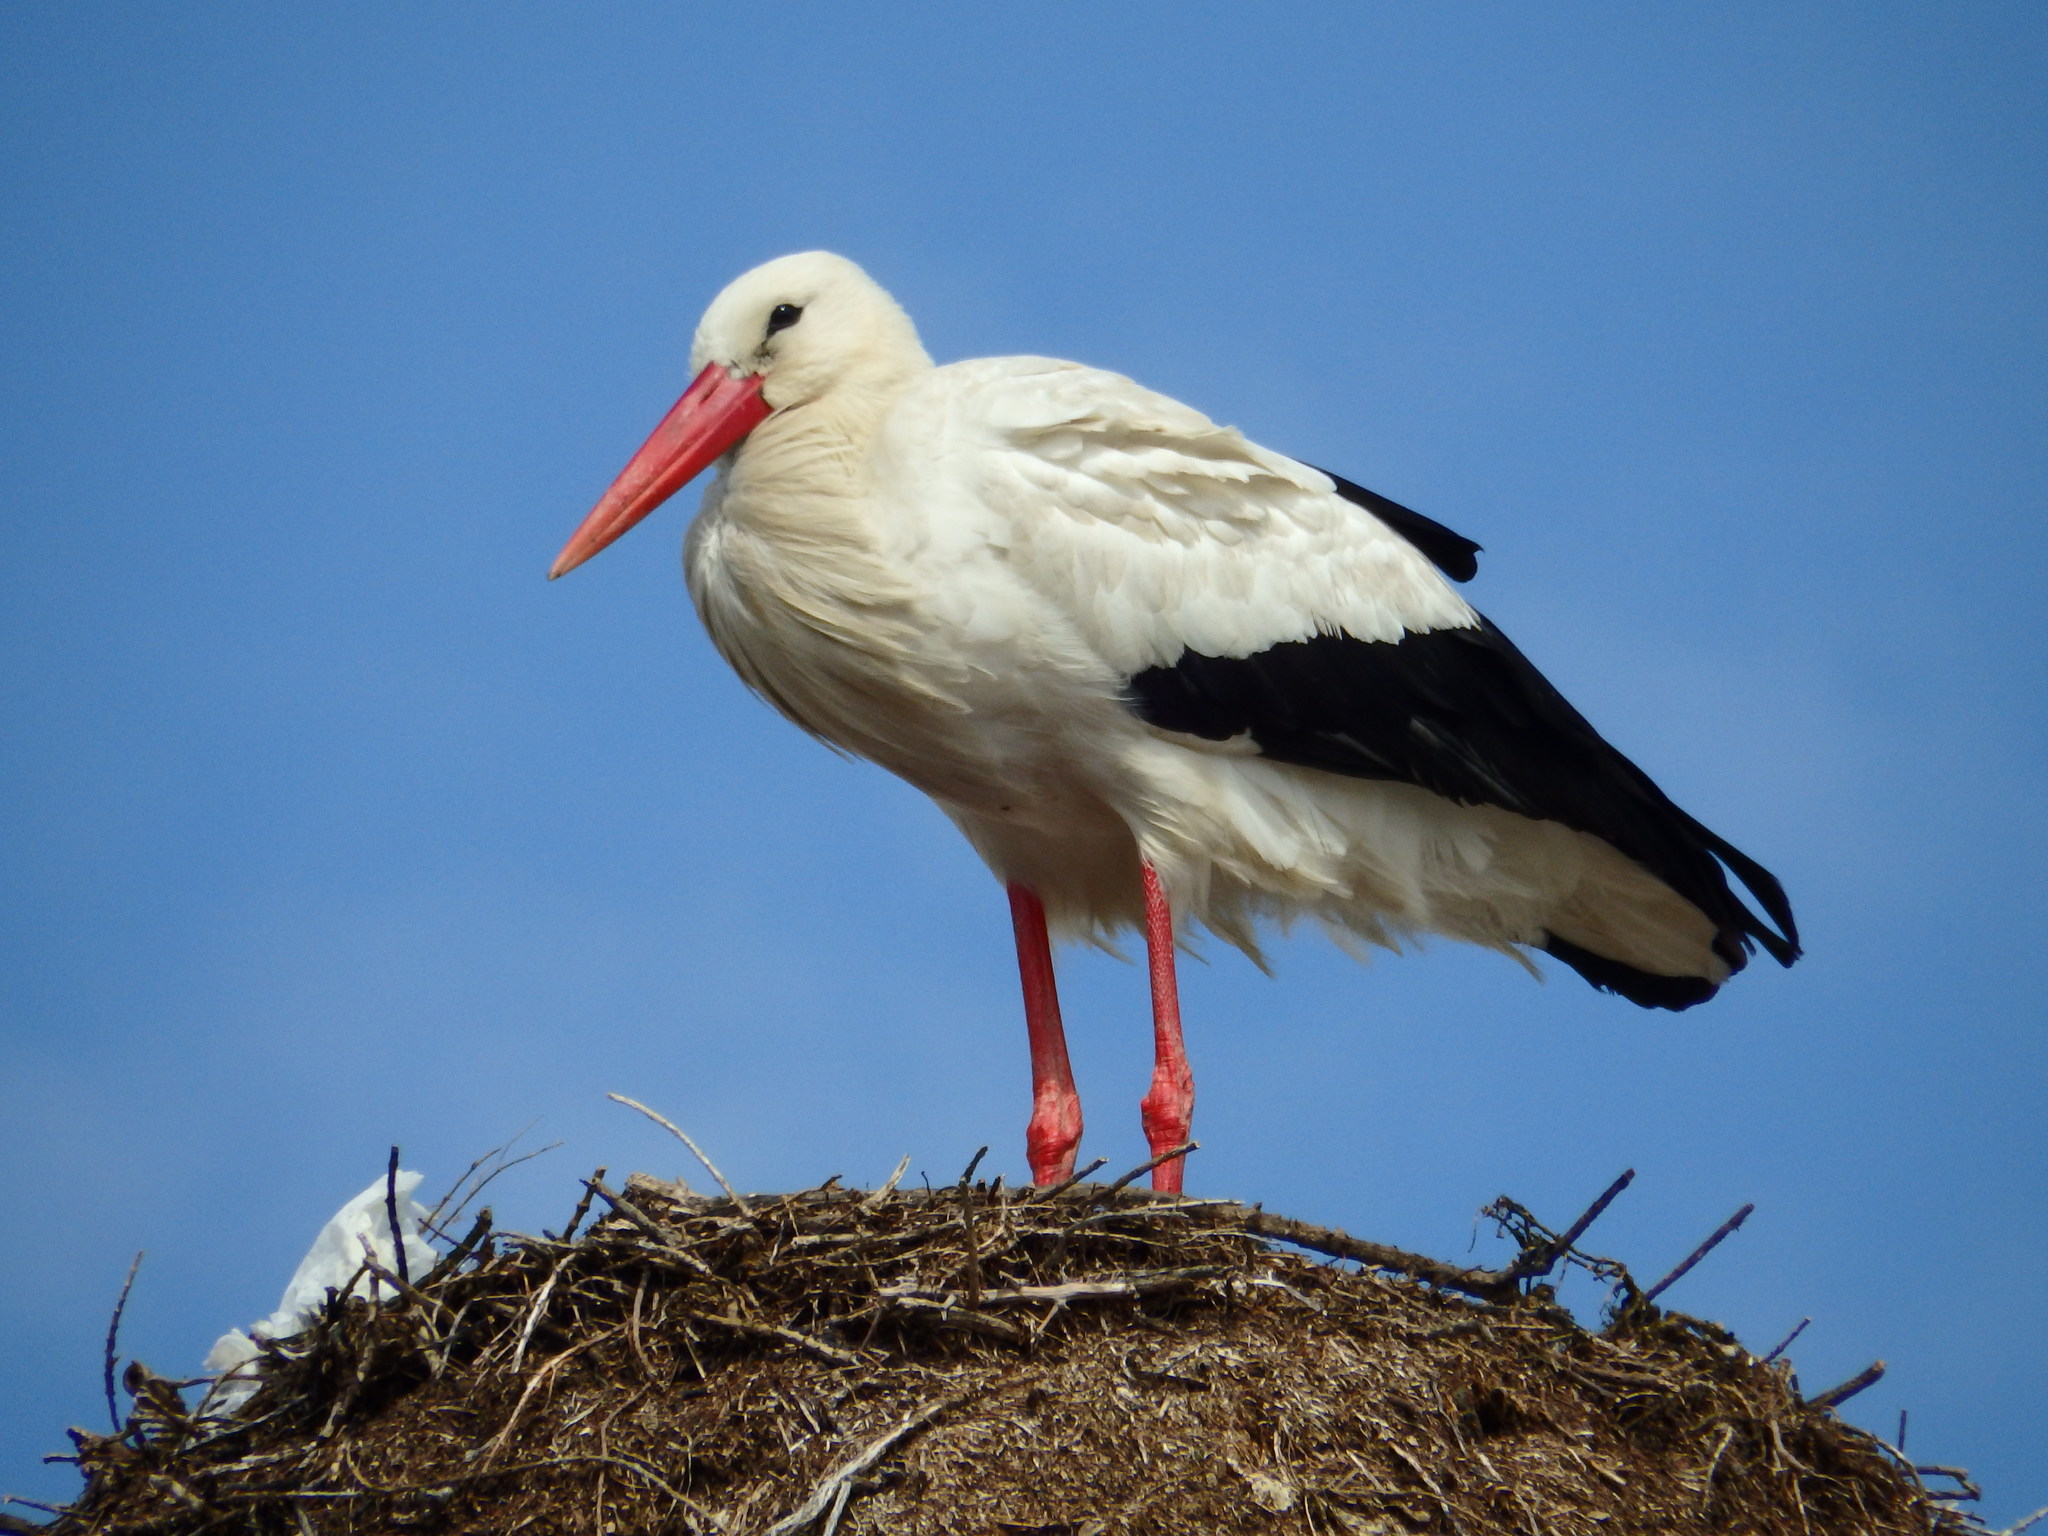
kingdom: Animalia
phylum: Chordata
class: Aves
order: Ciconiiformes
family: Ciconiidae
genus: Ciconia
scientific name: Ciconia ciconia
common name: White stork
